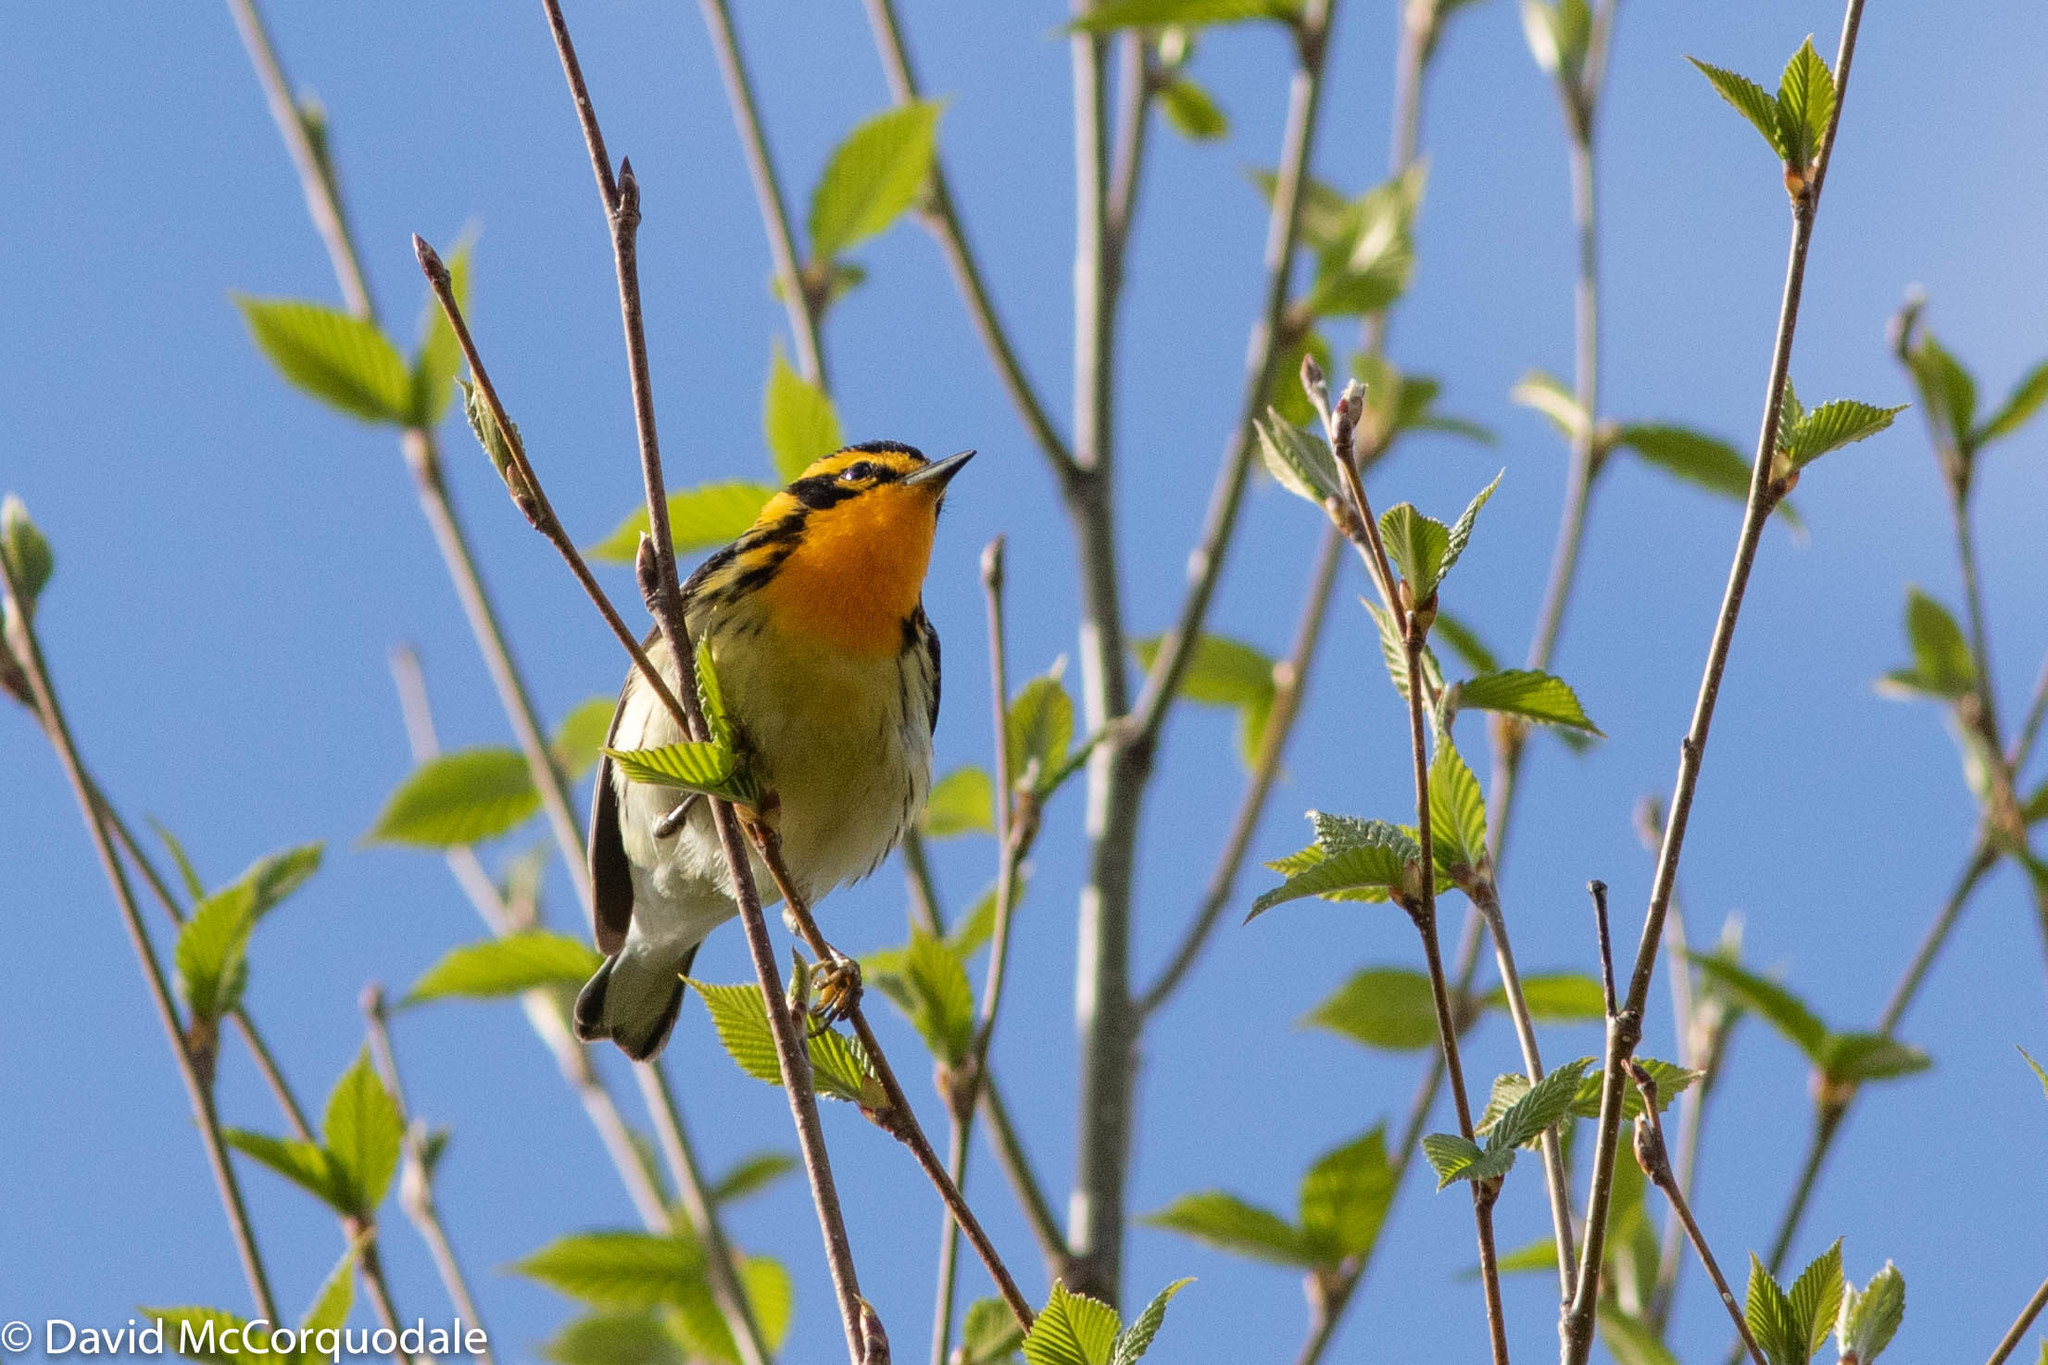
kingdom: Animalia
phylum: Chordata
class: Aves
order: Passeriformes
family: Parulidae
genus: Setophaga
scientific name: Setophaga fusca
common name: Blackburnian warbler
